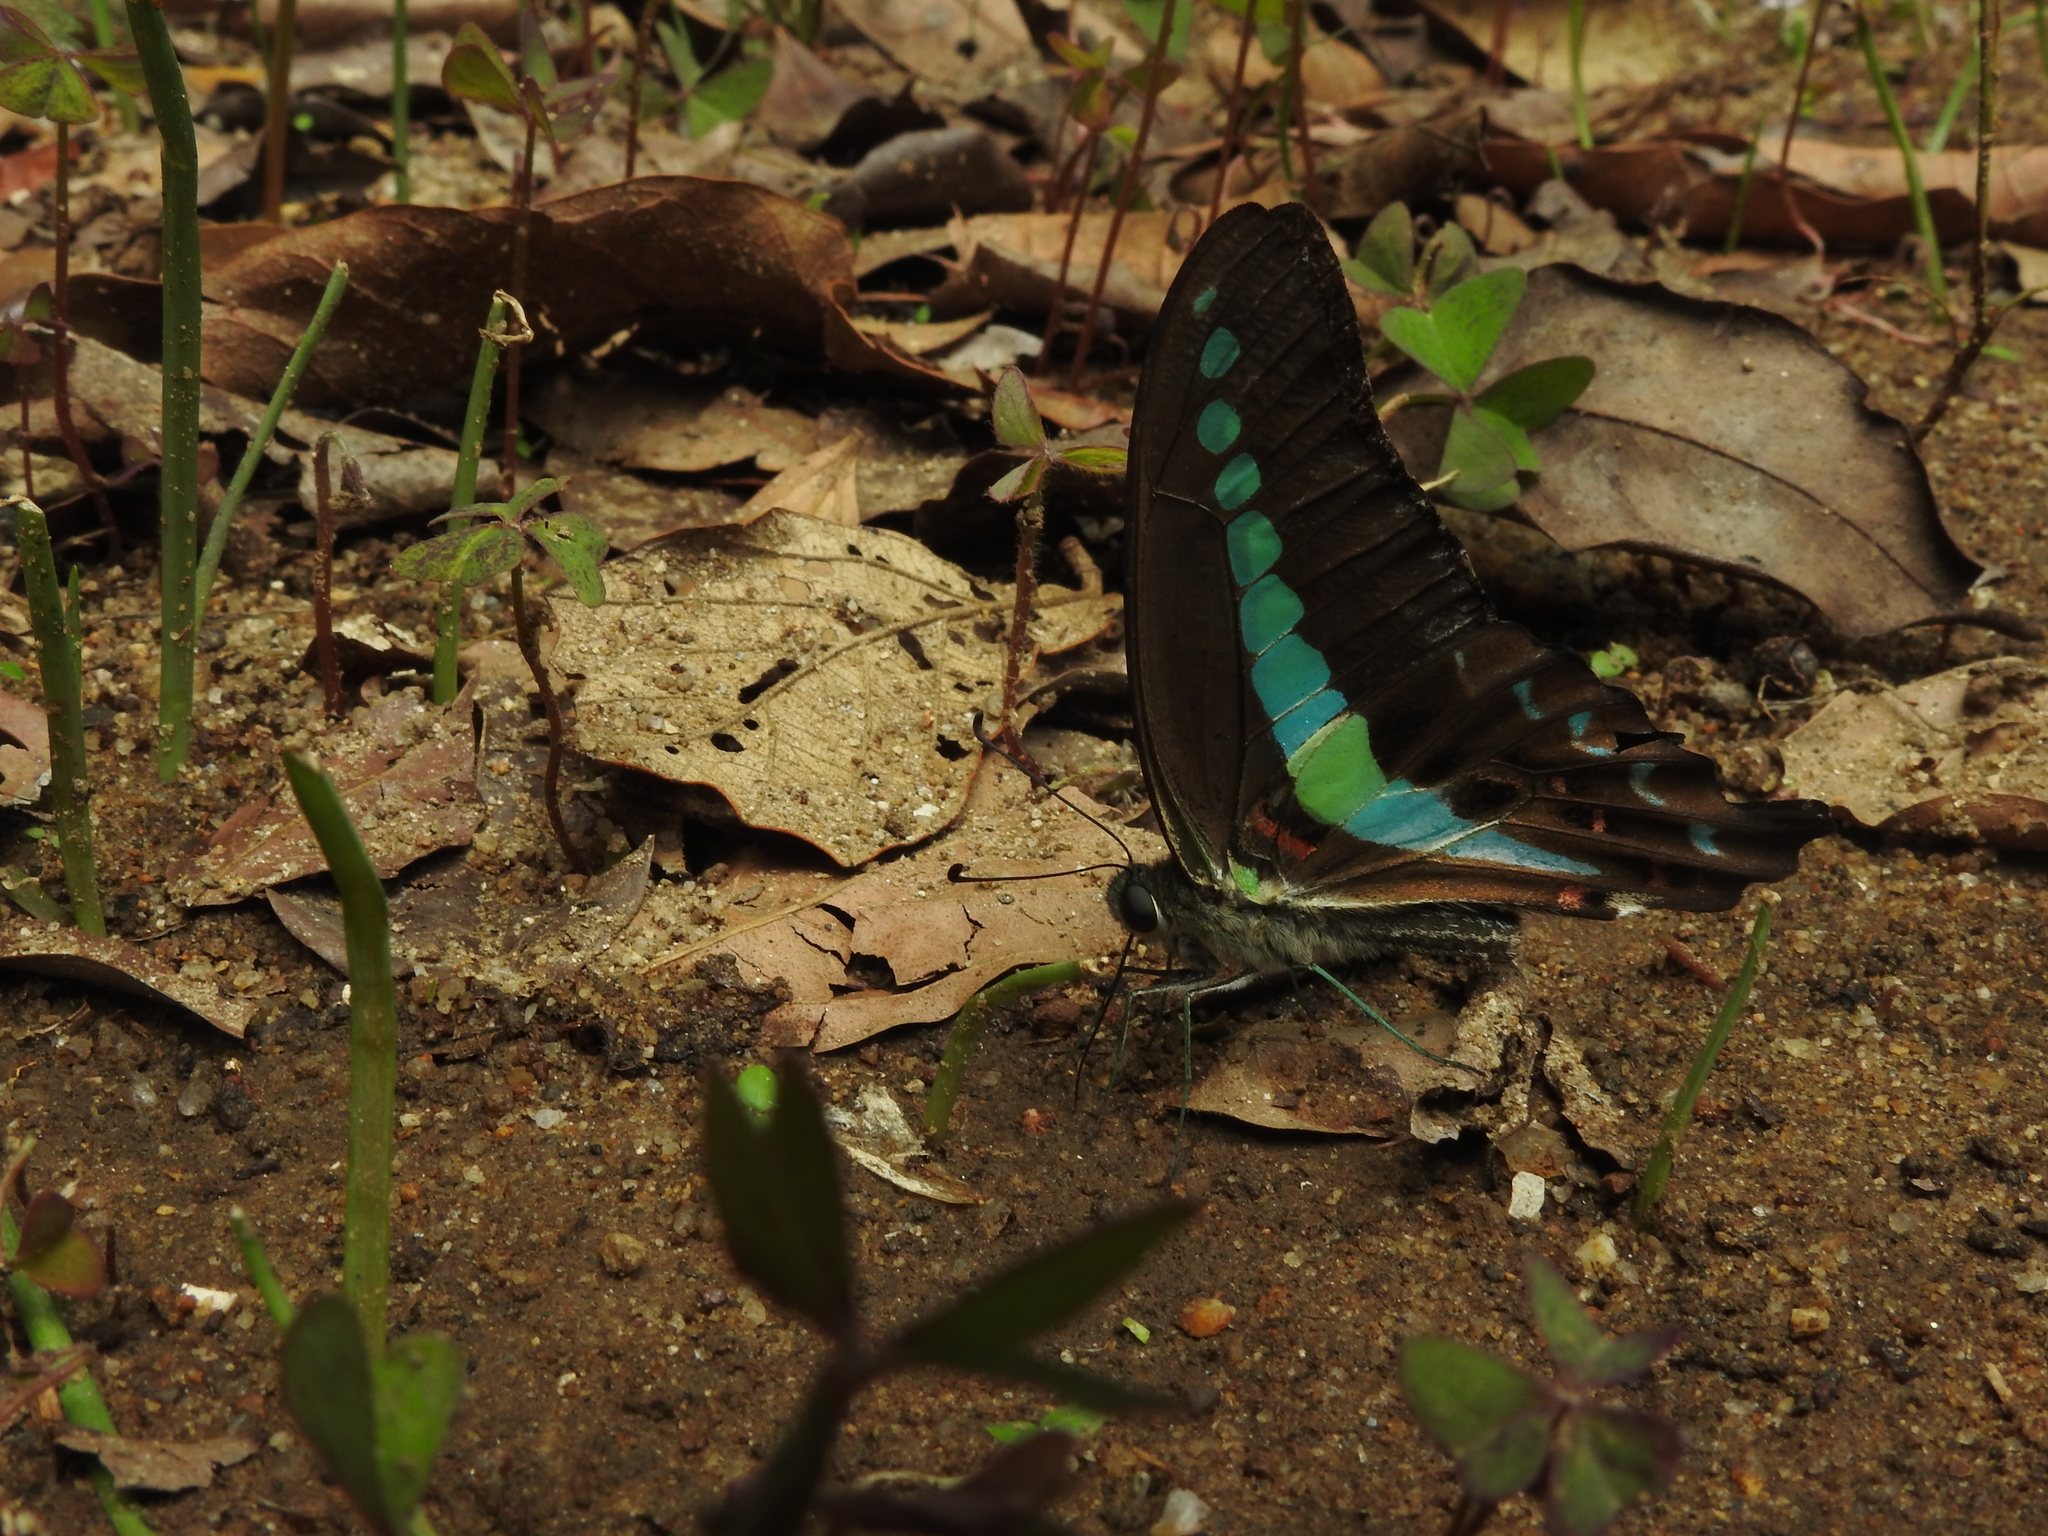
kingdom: Animalia
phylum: Arthropoda
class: Insecta
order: Lepidoptera
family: Papilionidae
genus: Graphium
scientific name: Graphium
